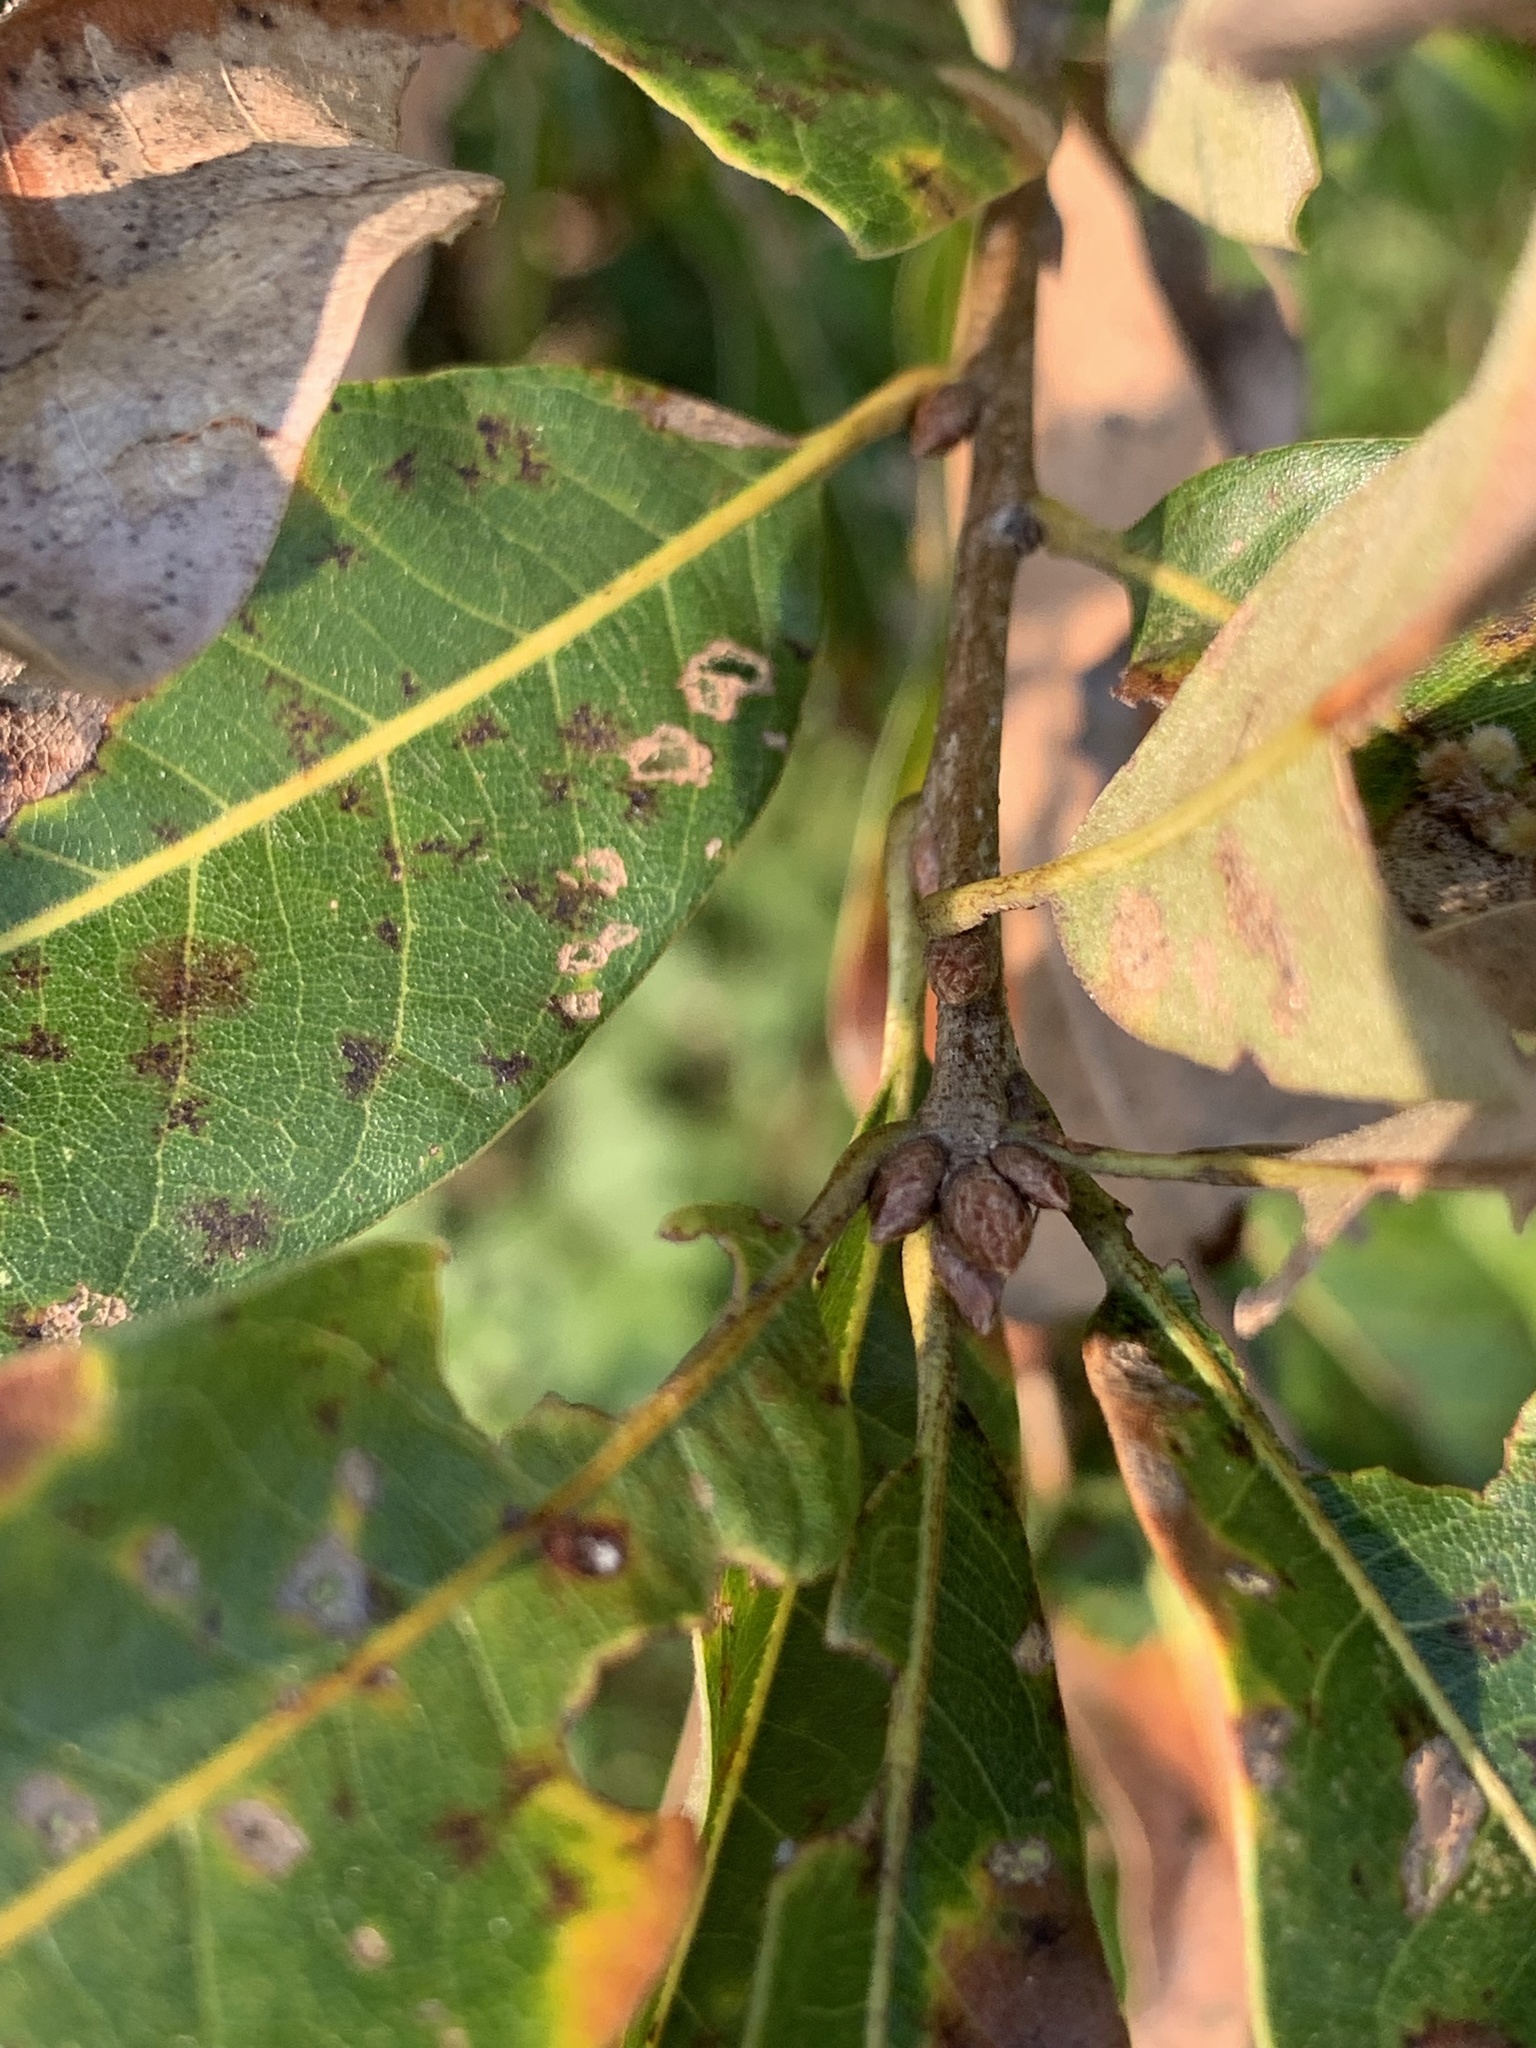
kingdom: Plantae
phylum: Tracheophyta
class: Magnoliopsida
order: Fagales
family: Fagaceae
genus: Quercus
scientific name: Quercus imbricaria
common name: Shingle oak
